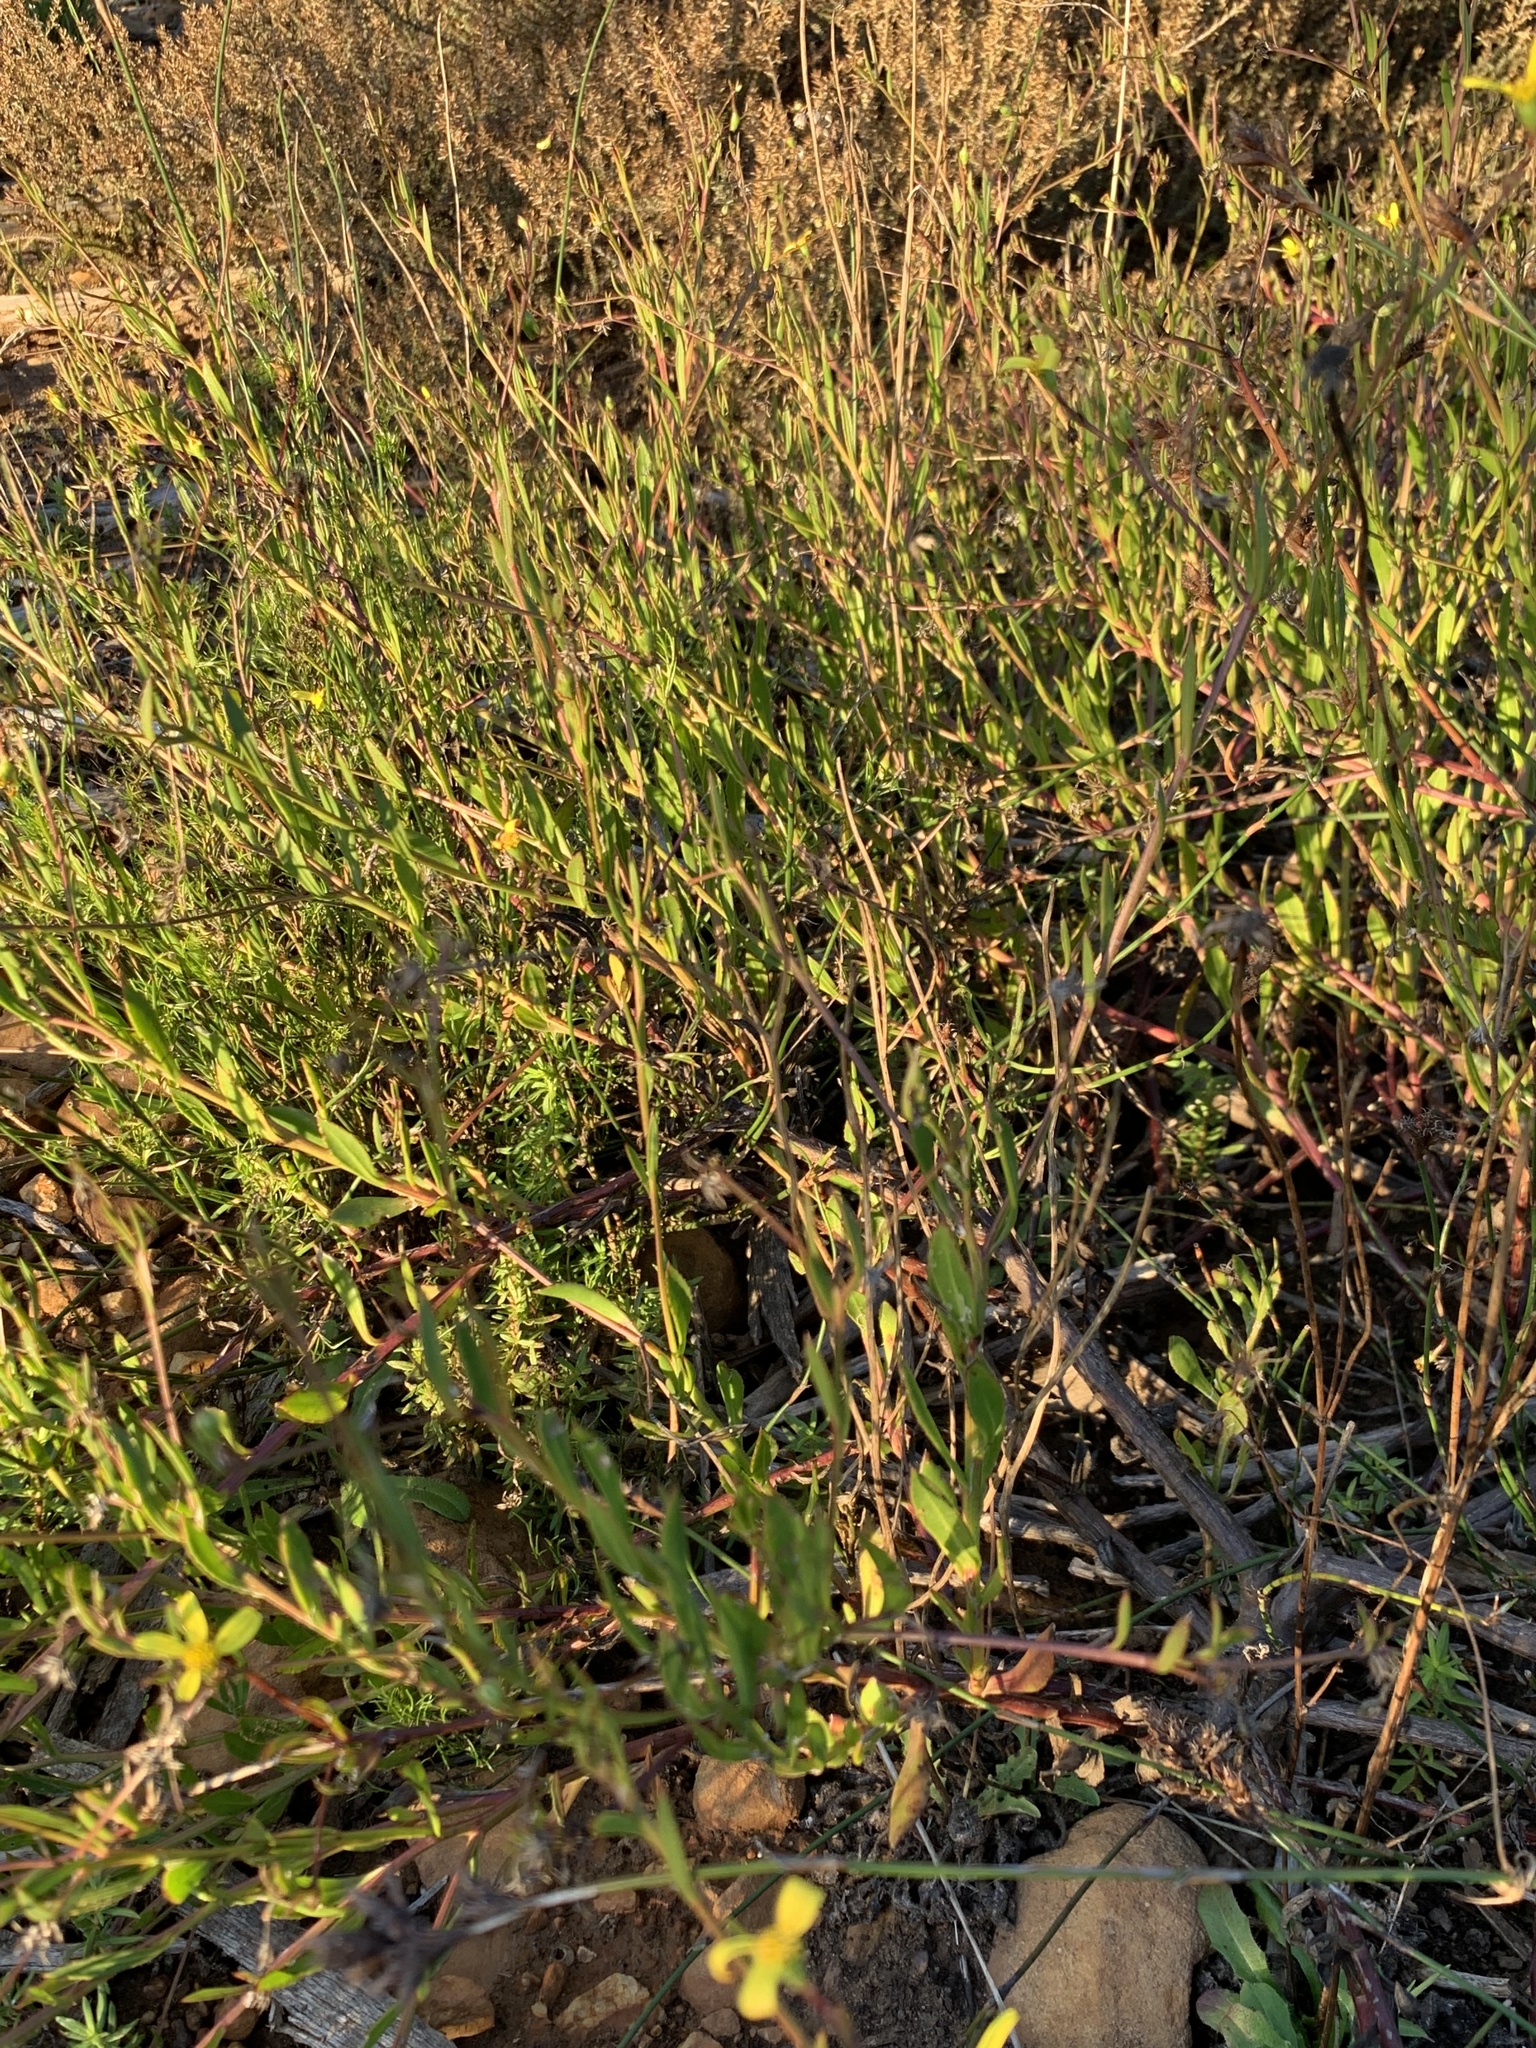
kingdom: Plantae
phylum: Tracheophyta
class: Magnoliopsida
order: Asterales
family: Asteraceae
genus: Osteospermum
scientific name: Osteospermum ciliatum
